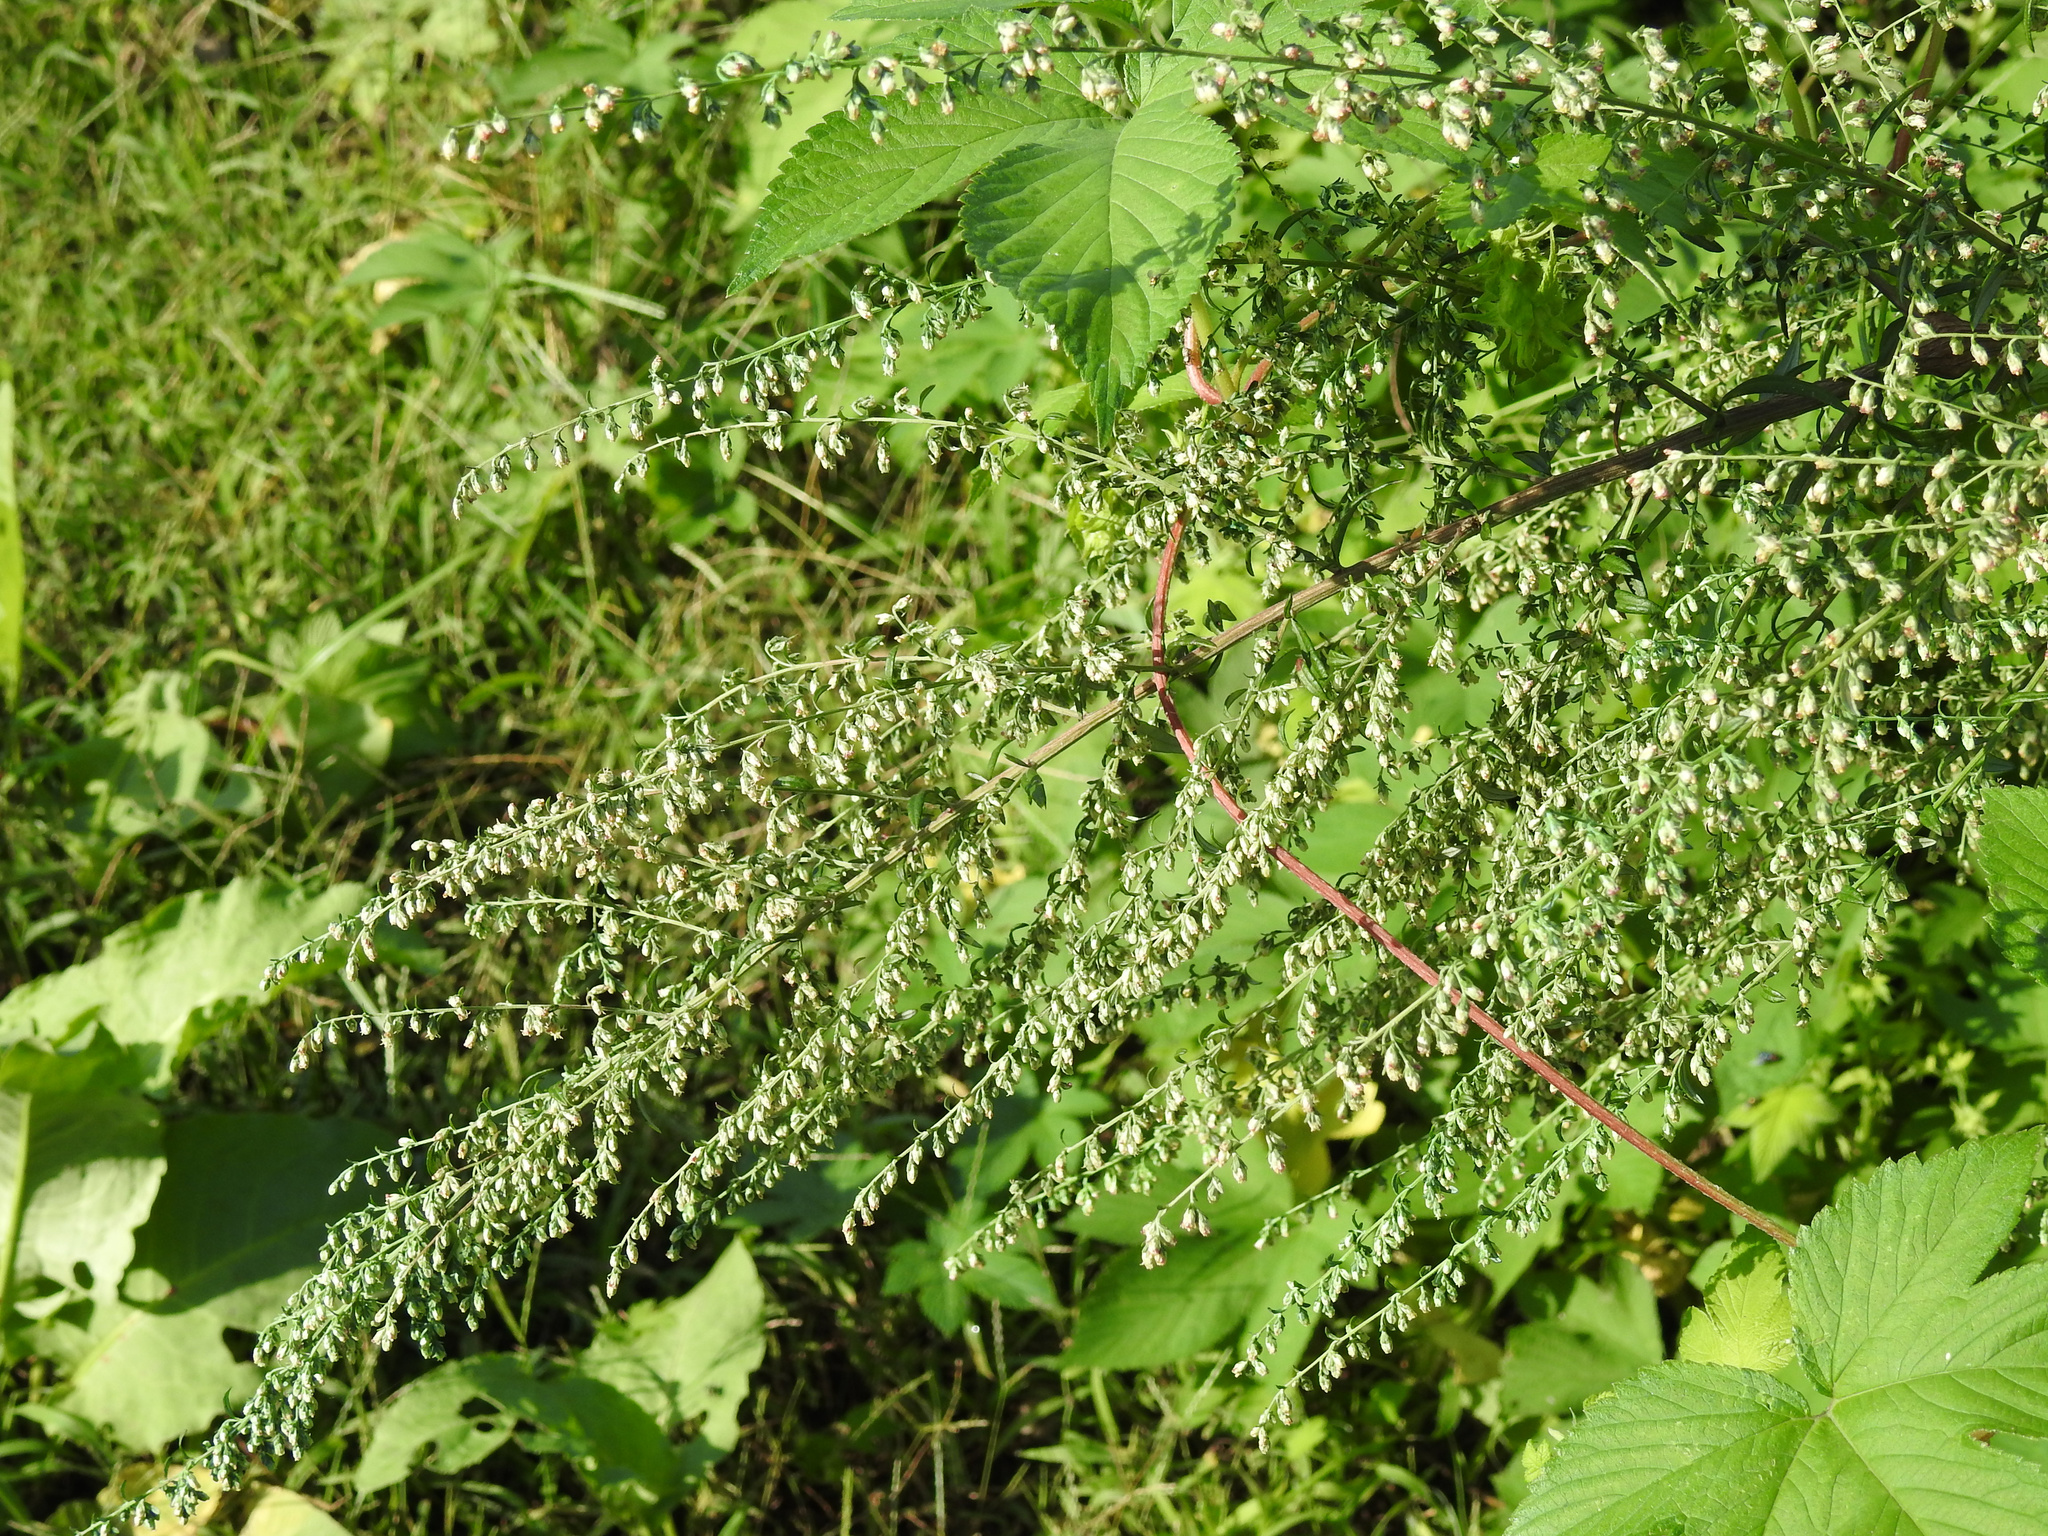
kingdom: Plantae
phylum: Tracheophyta
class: Magnoliopsida
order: Asterales
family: Asteraceae
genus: Artemisia
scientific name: Artemisia vulgaris
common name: Mugwort
